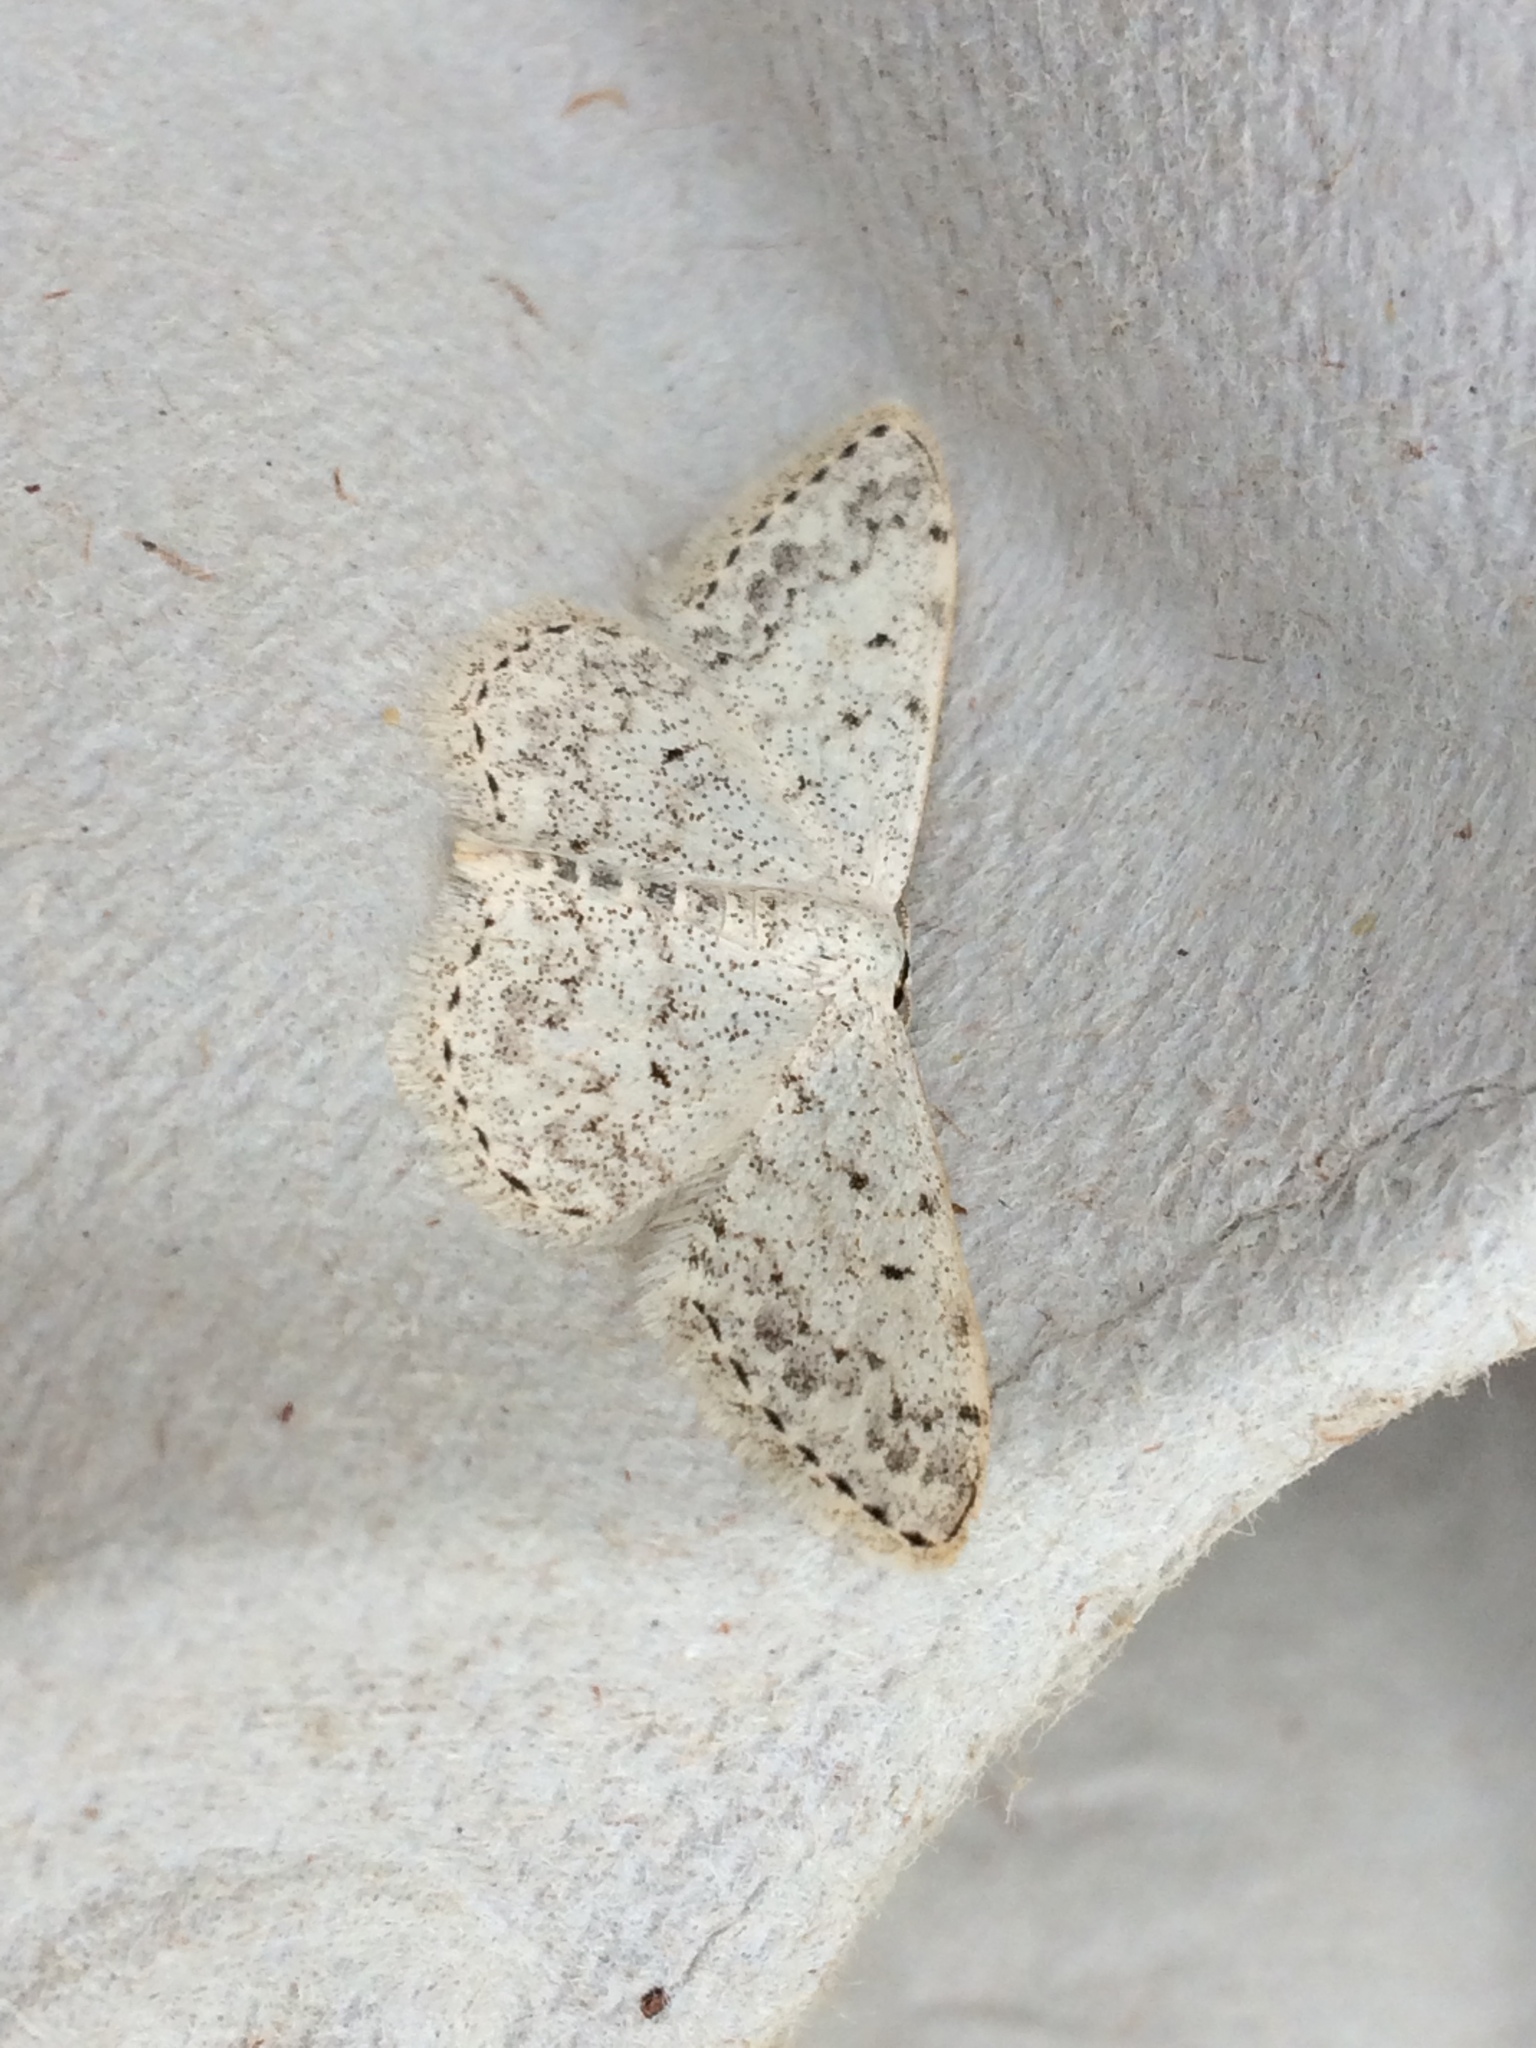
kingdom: Animalia
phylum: Arthropoda
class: Insecta
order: Lepidoptera
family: Geometridae
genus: Scopula
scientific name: Scopula marginepunctata
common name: Mullein wave
